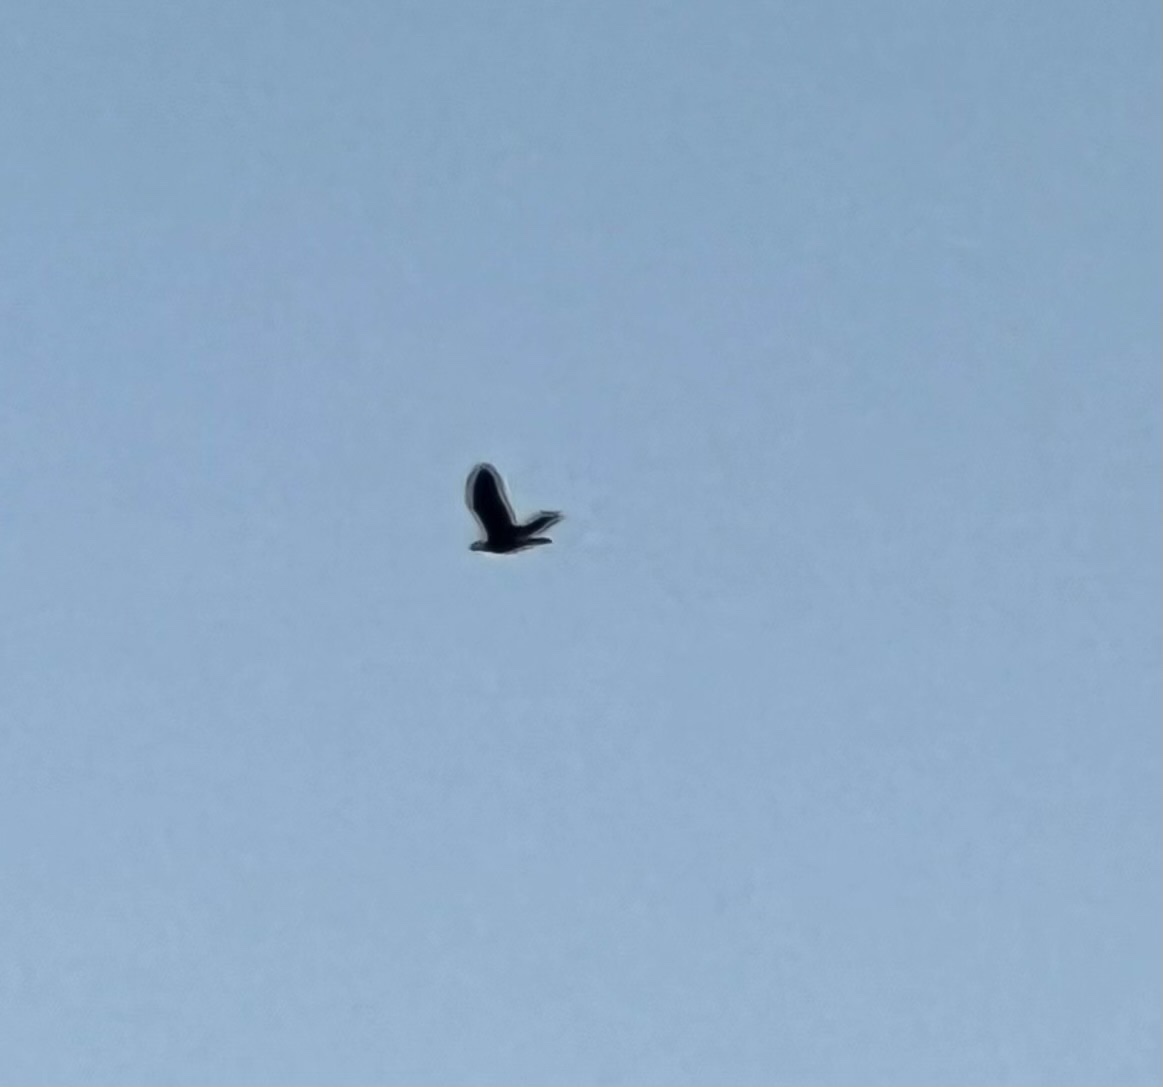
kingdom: Animalia
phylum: Chordata
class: Aves
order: Accipitriformes
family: Accipitridae
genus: Haliaeetus
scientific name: Haliaeetus leucocephalus
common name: Bald eagle
